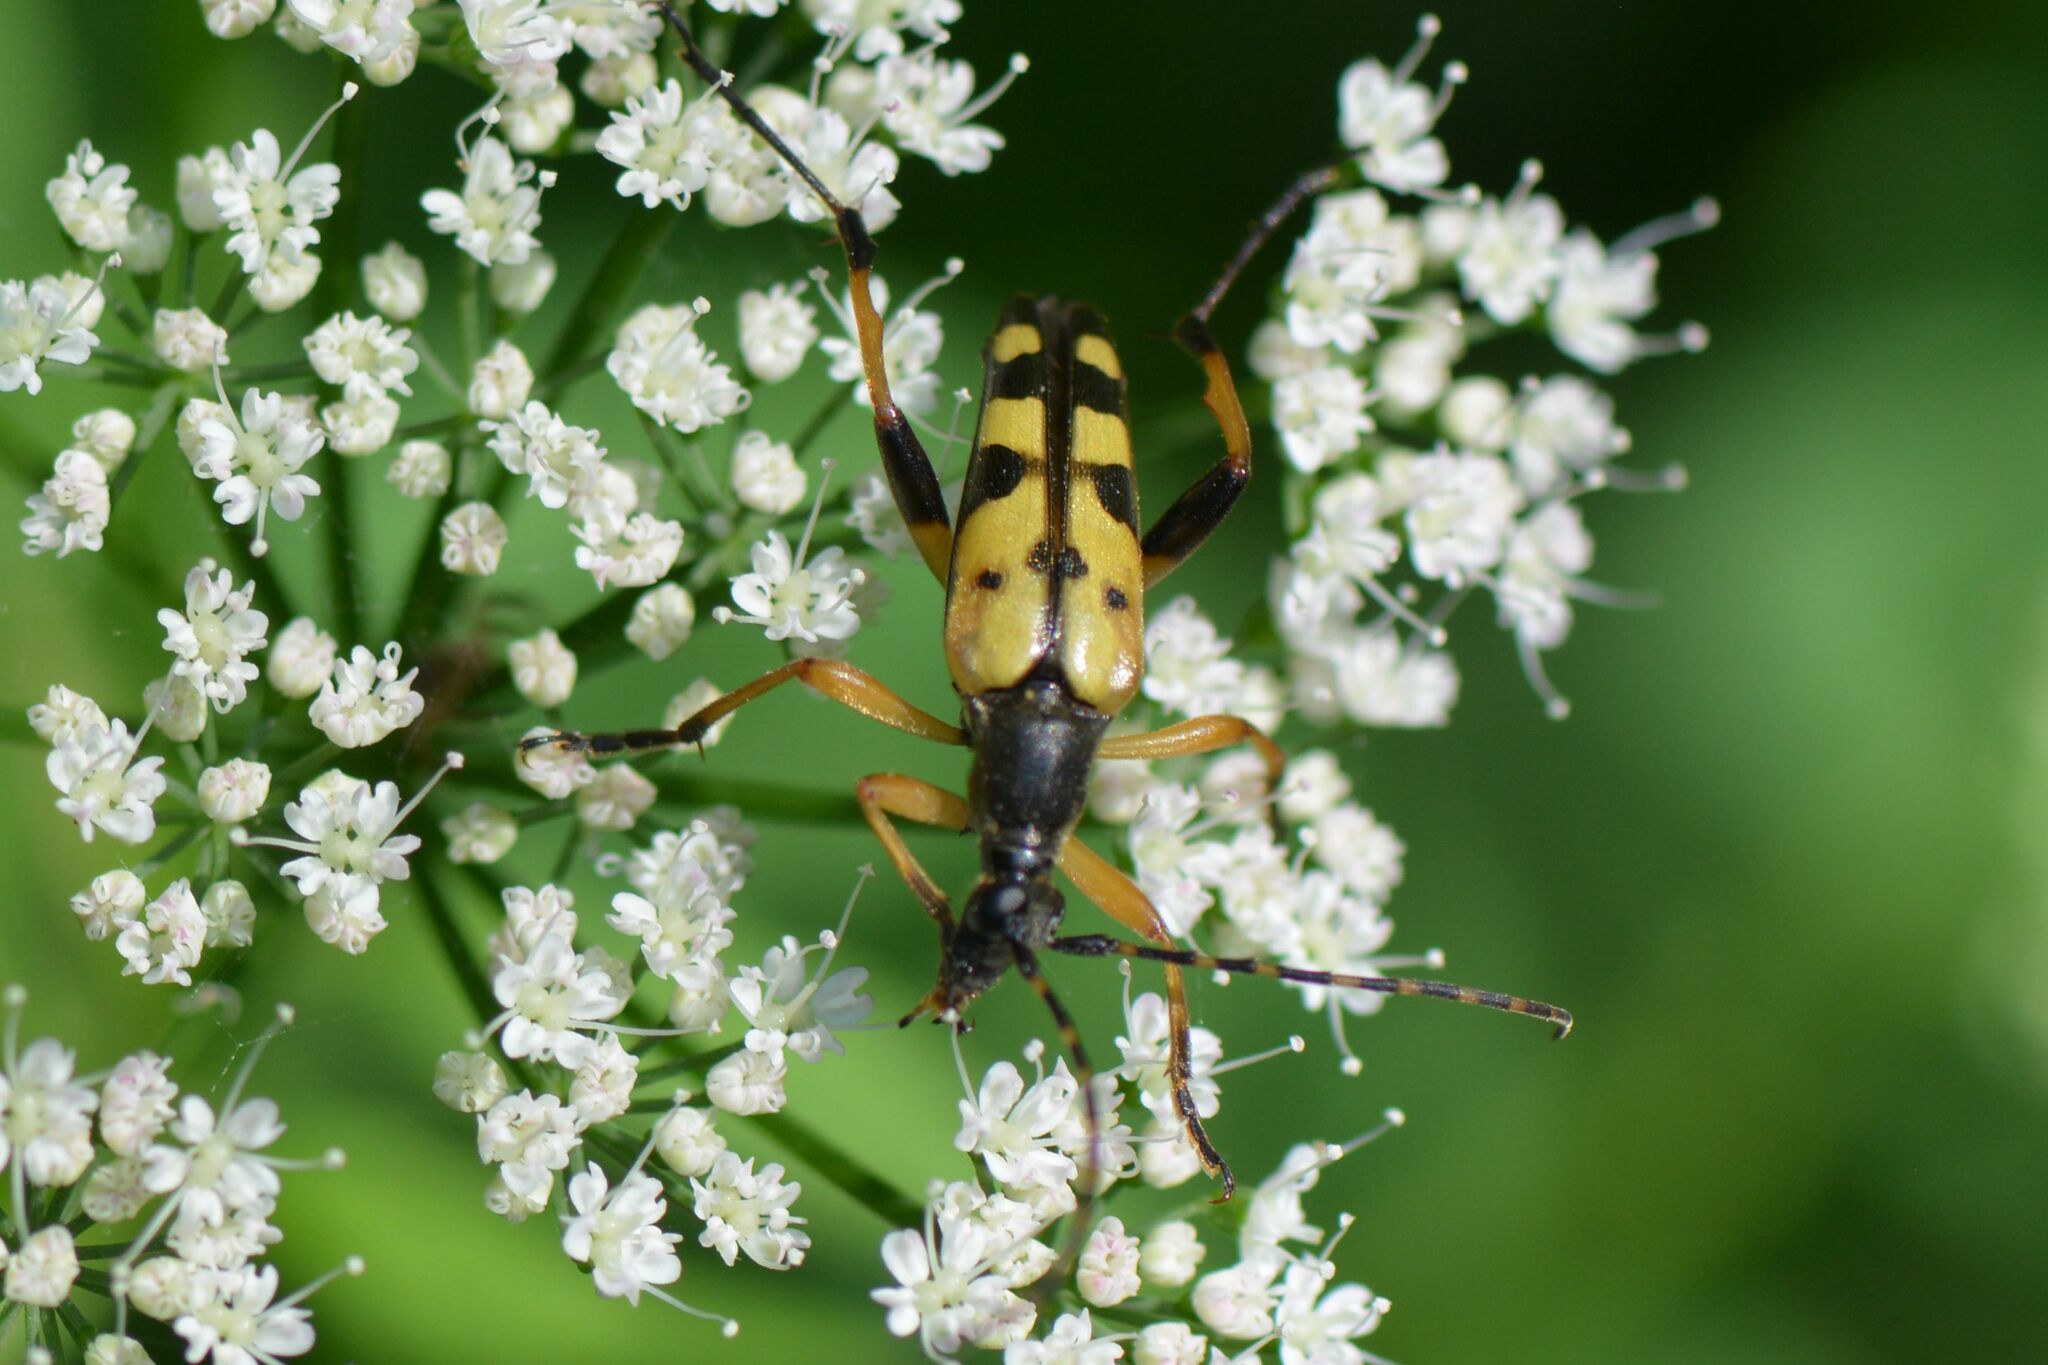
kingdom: Animalia
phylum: Arthropoda
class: Insecta
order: Coleoptera
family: Cerambycidae
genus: Rutpela
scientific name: Rutpela maculata
